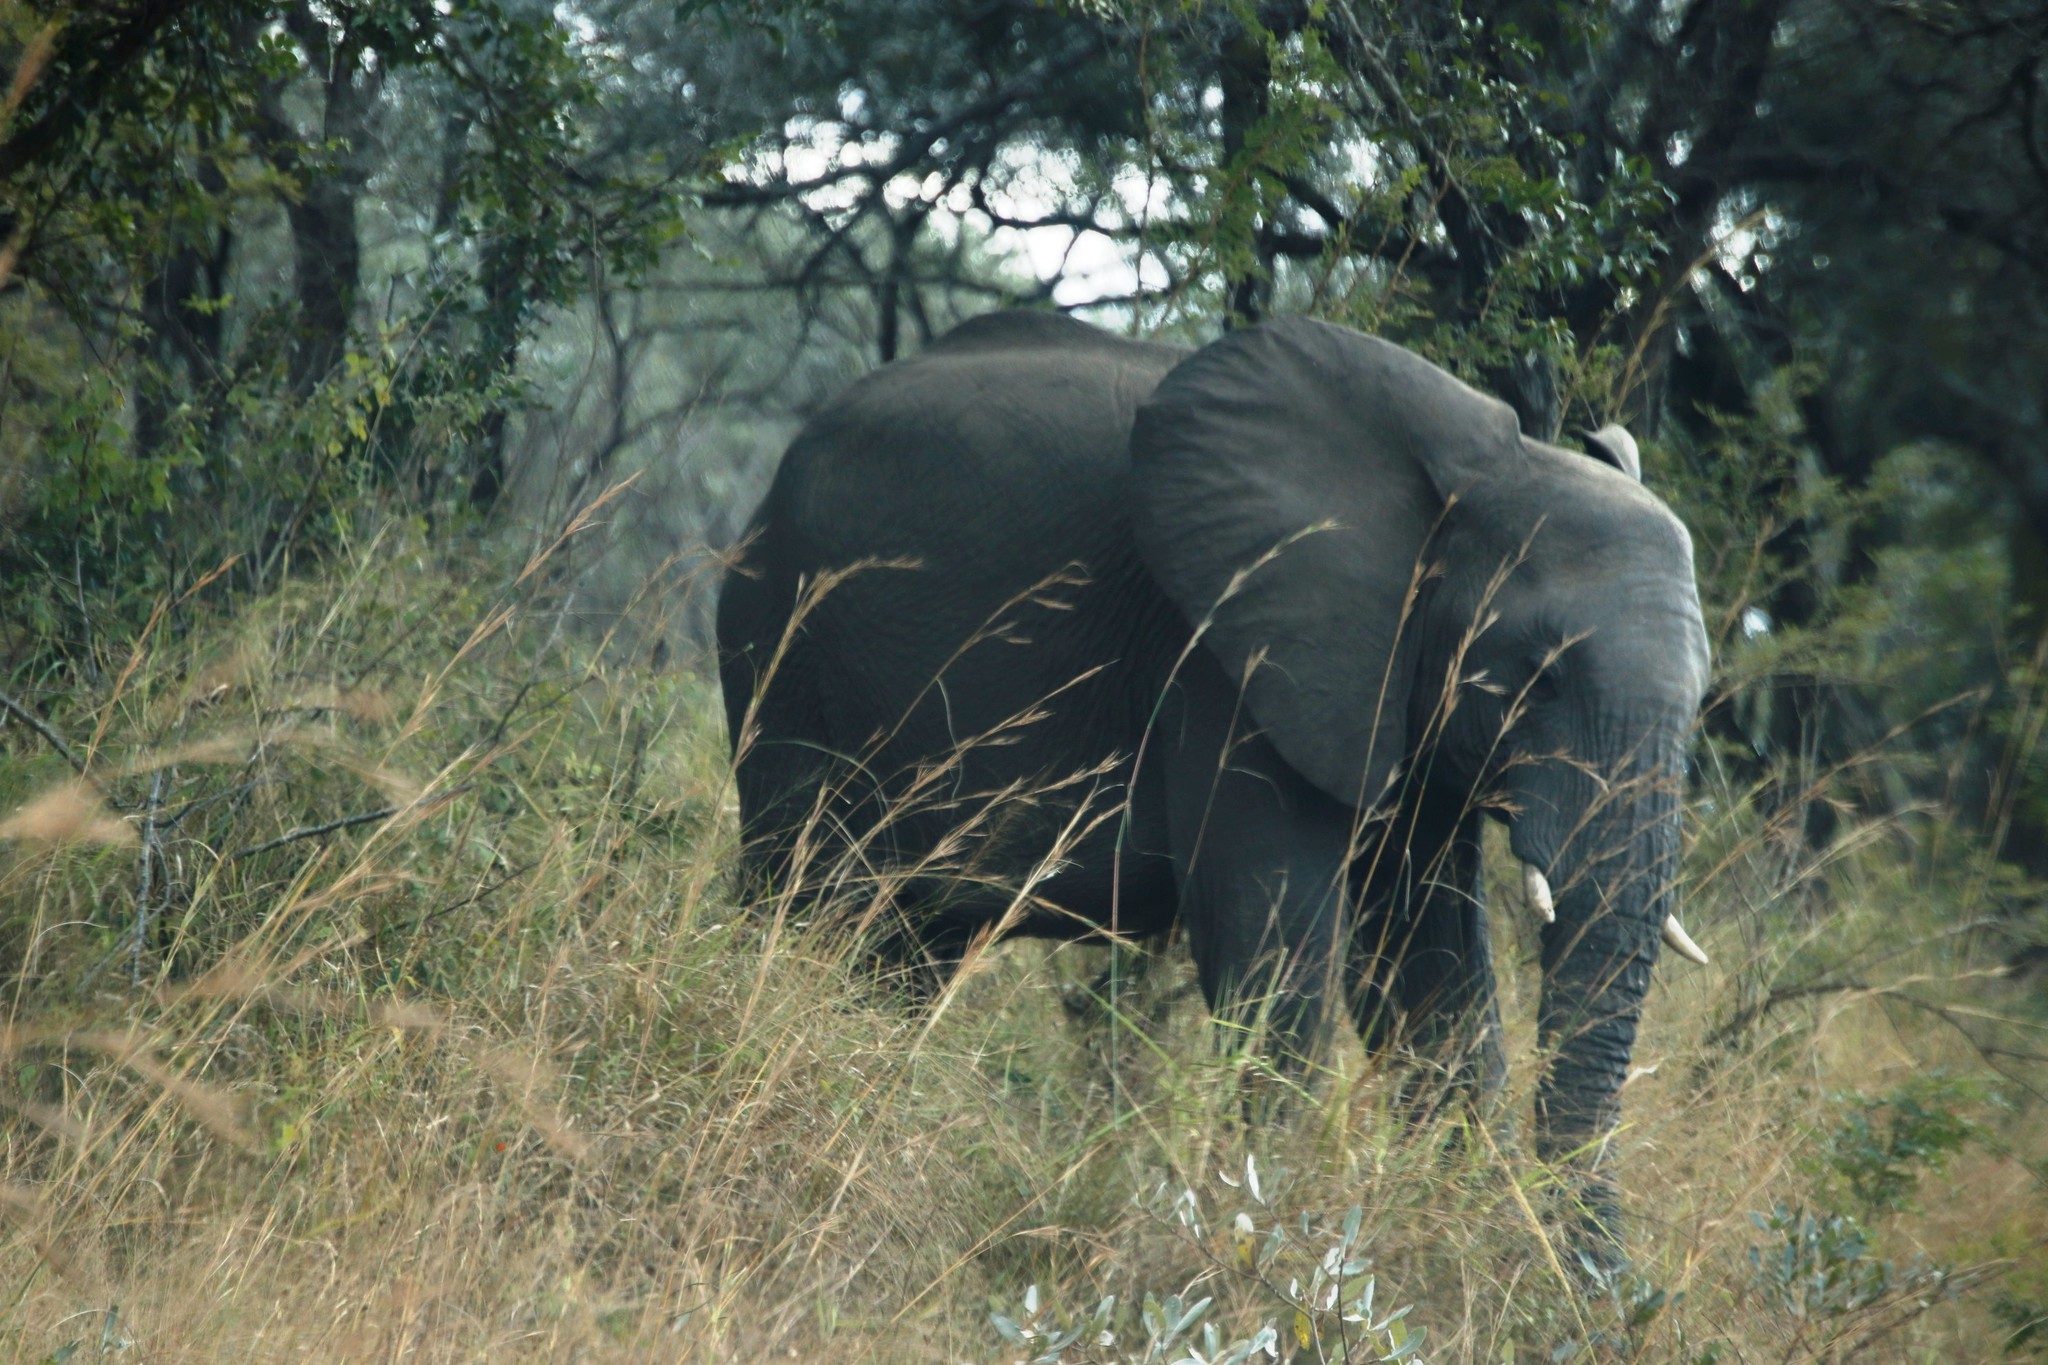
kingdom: Animalia
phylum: Chordata
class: Mammalia
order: Proboscidea
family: Elephantidae
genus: Loxodonta
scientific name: Loxodonta africana
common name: African elephant
